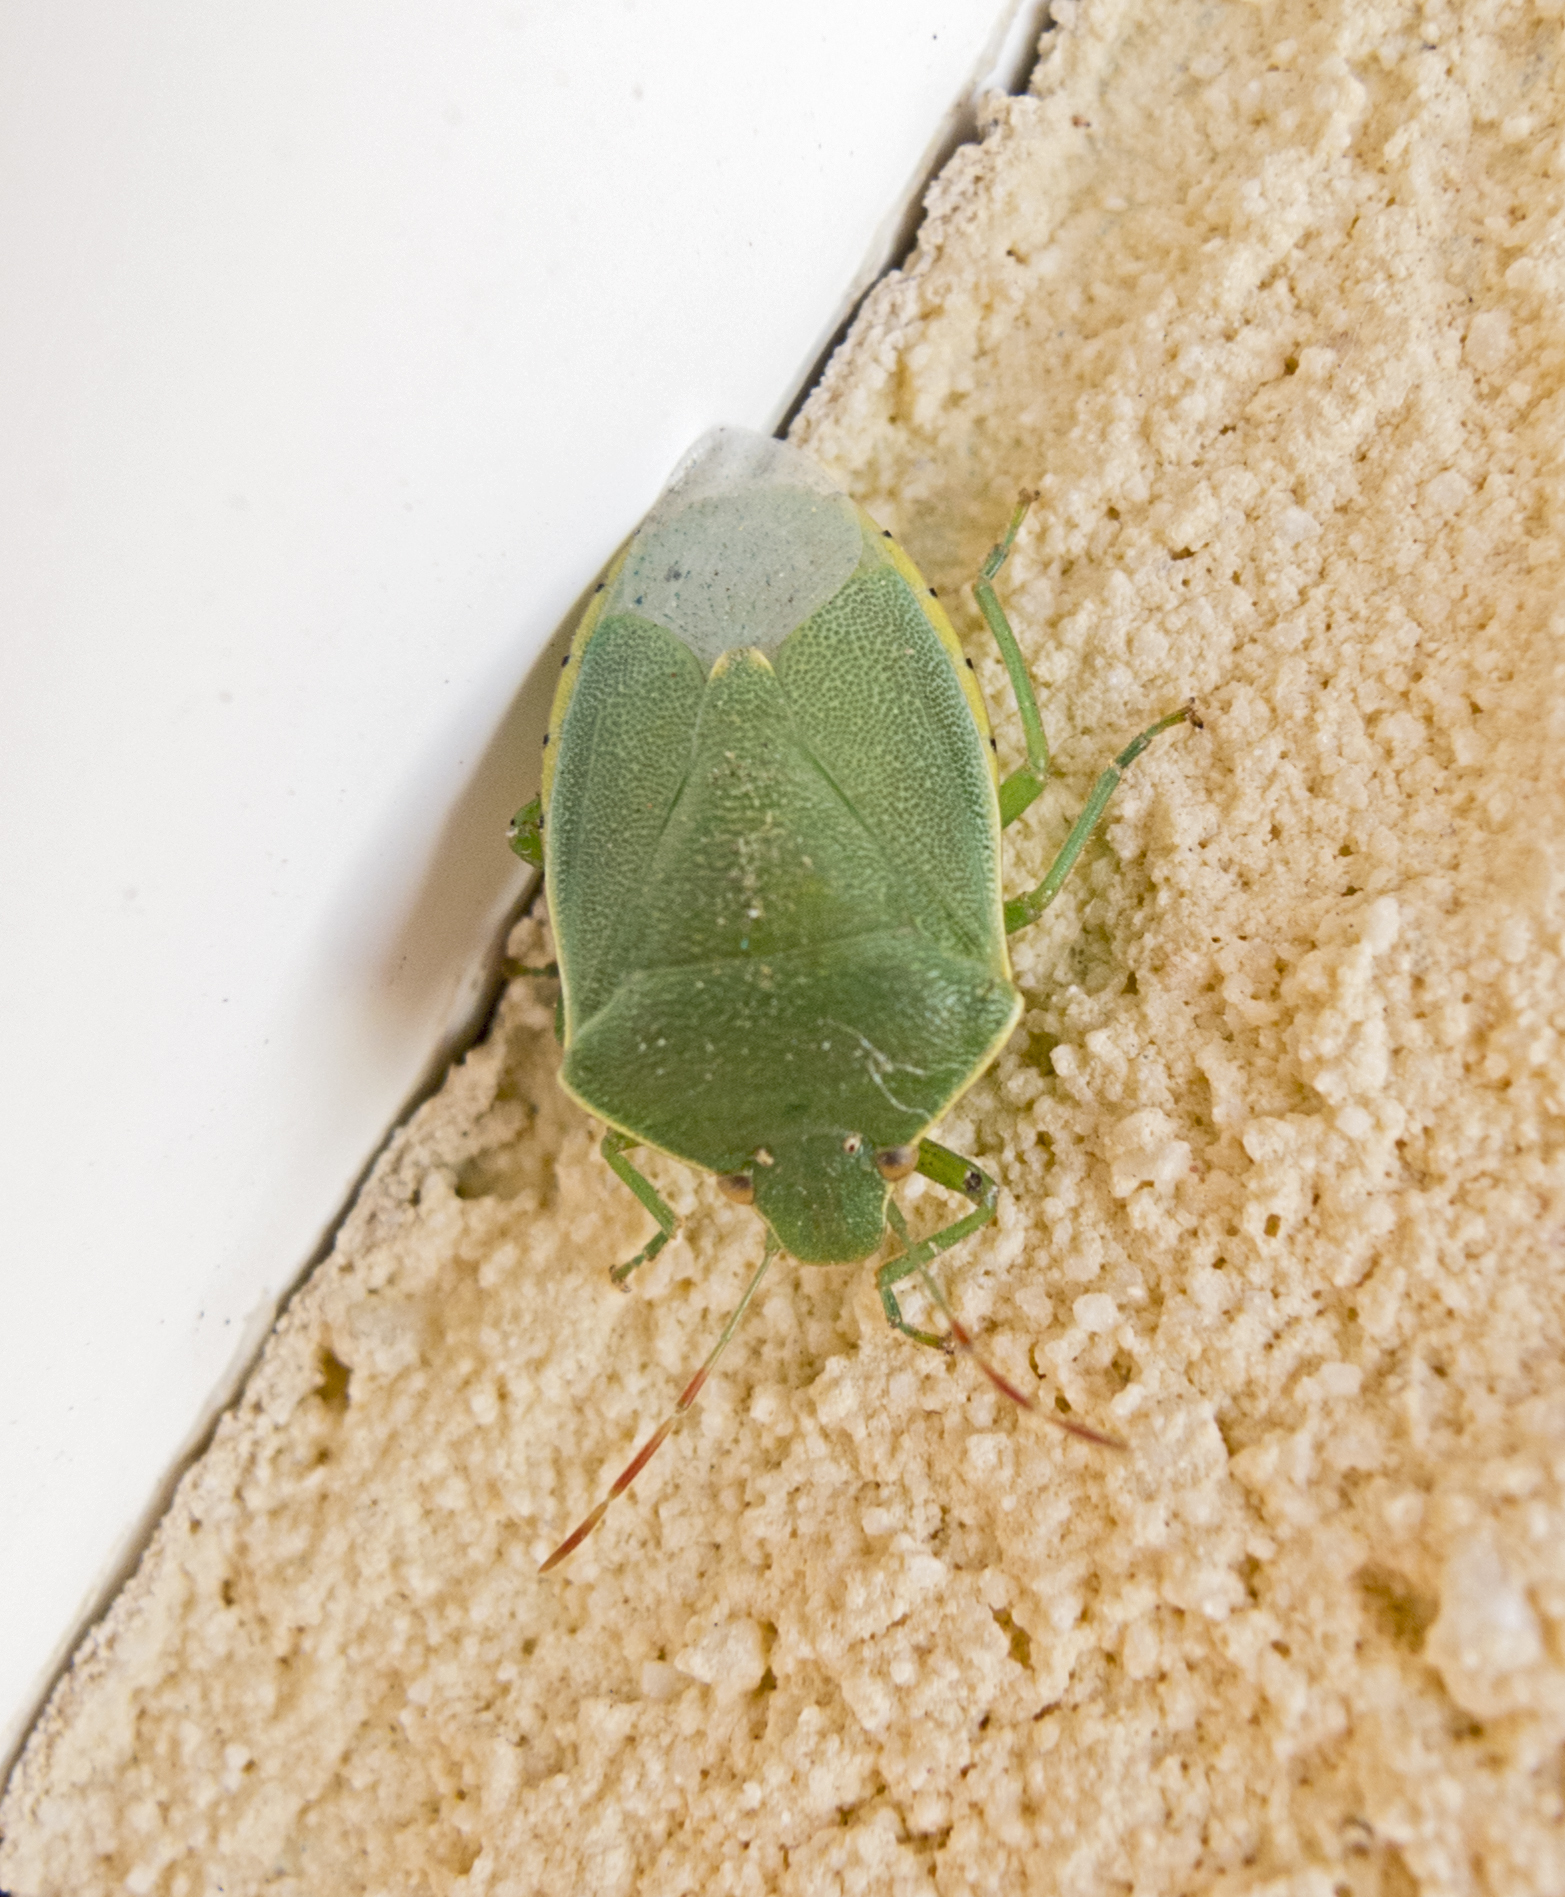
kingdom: Animalia
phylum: Arthropoda
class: Insecta
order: Hemiptera
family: Pentatomidae
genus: Acrosternum
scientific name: Acrosternum heegeri
